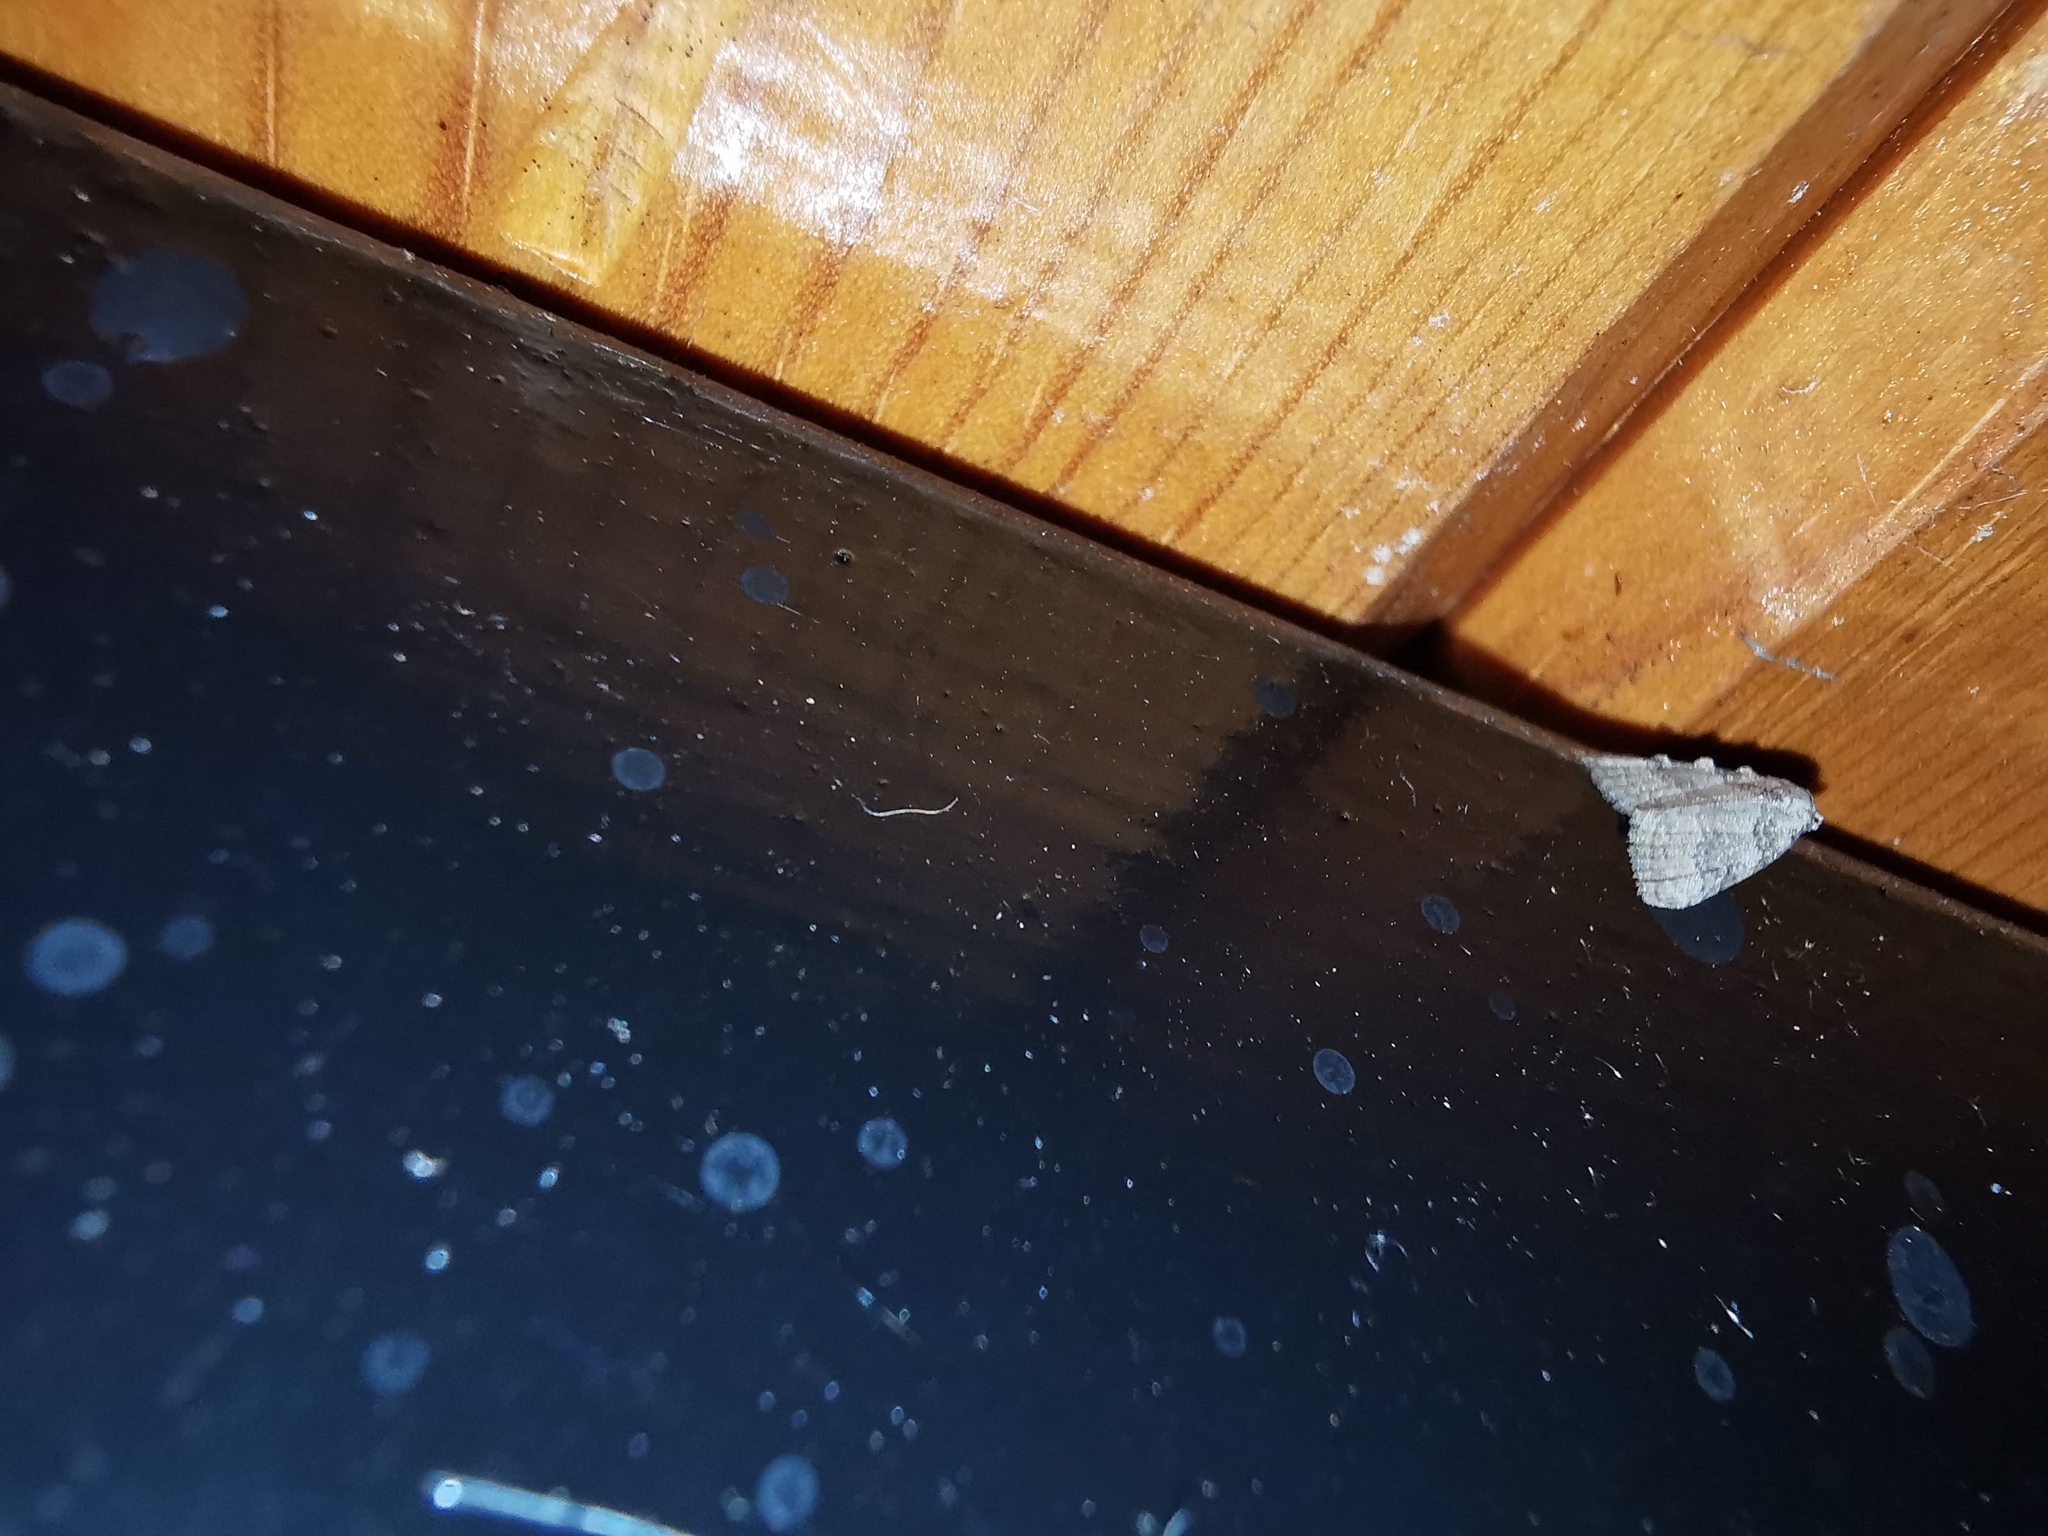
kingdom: Animalia
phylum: Arthropoda
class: Insecta
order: Lepidoptera
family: Nolidae
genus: Nola
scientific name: Nola harouni
